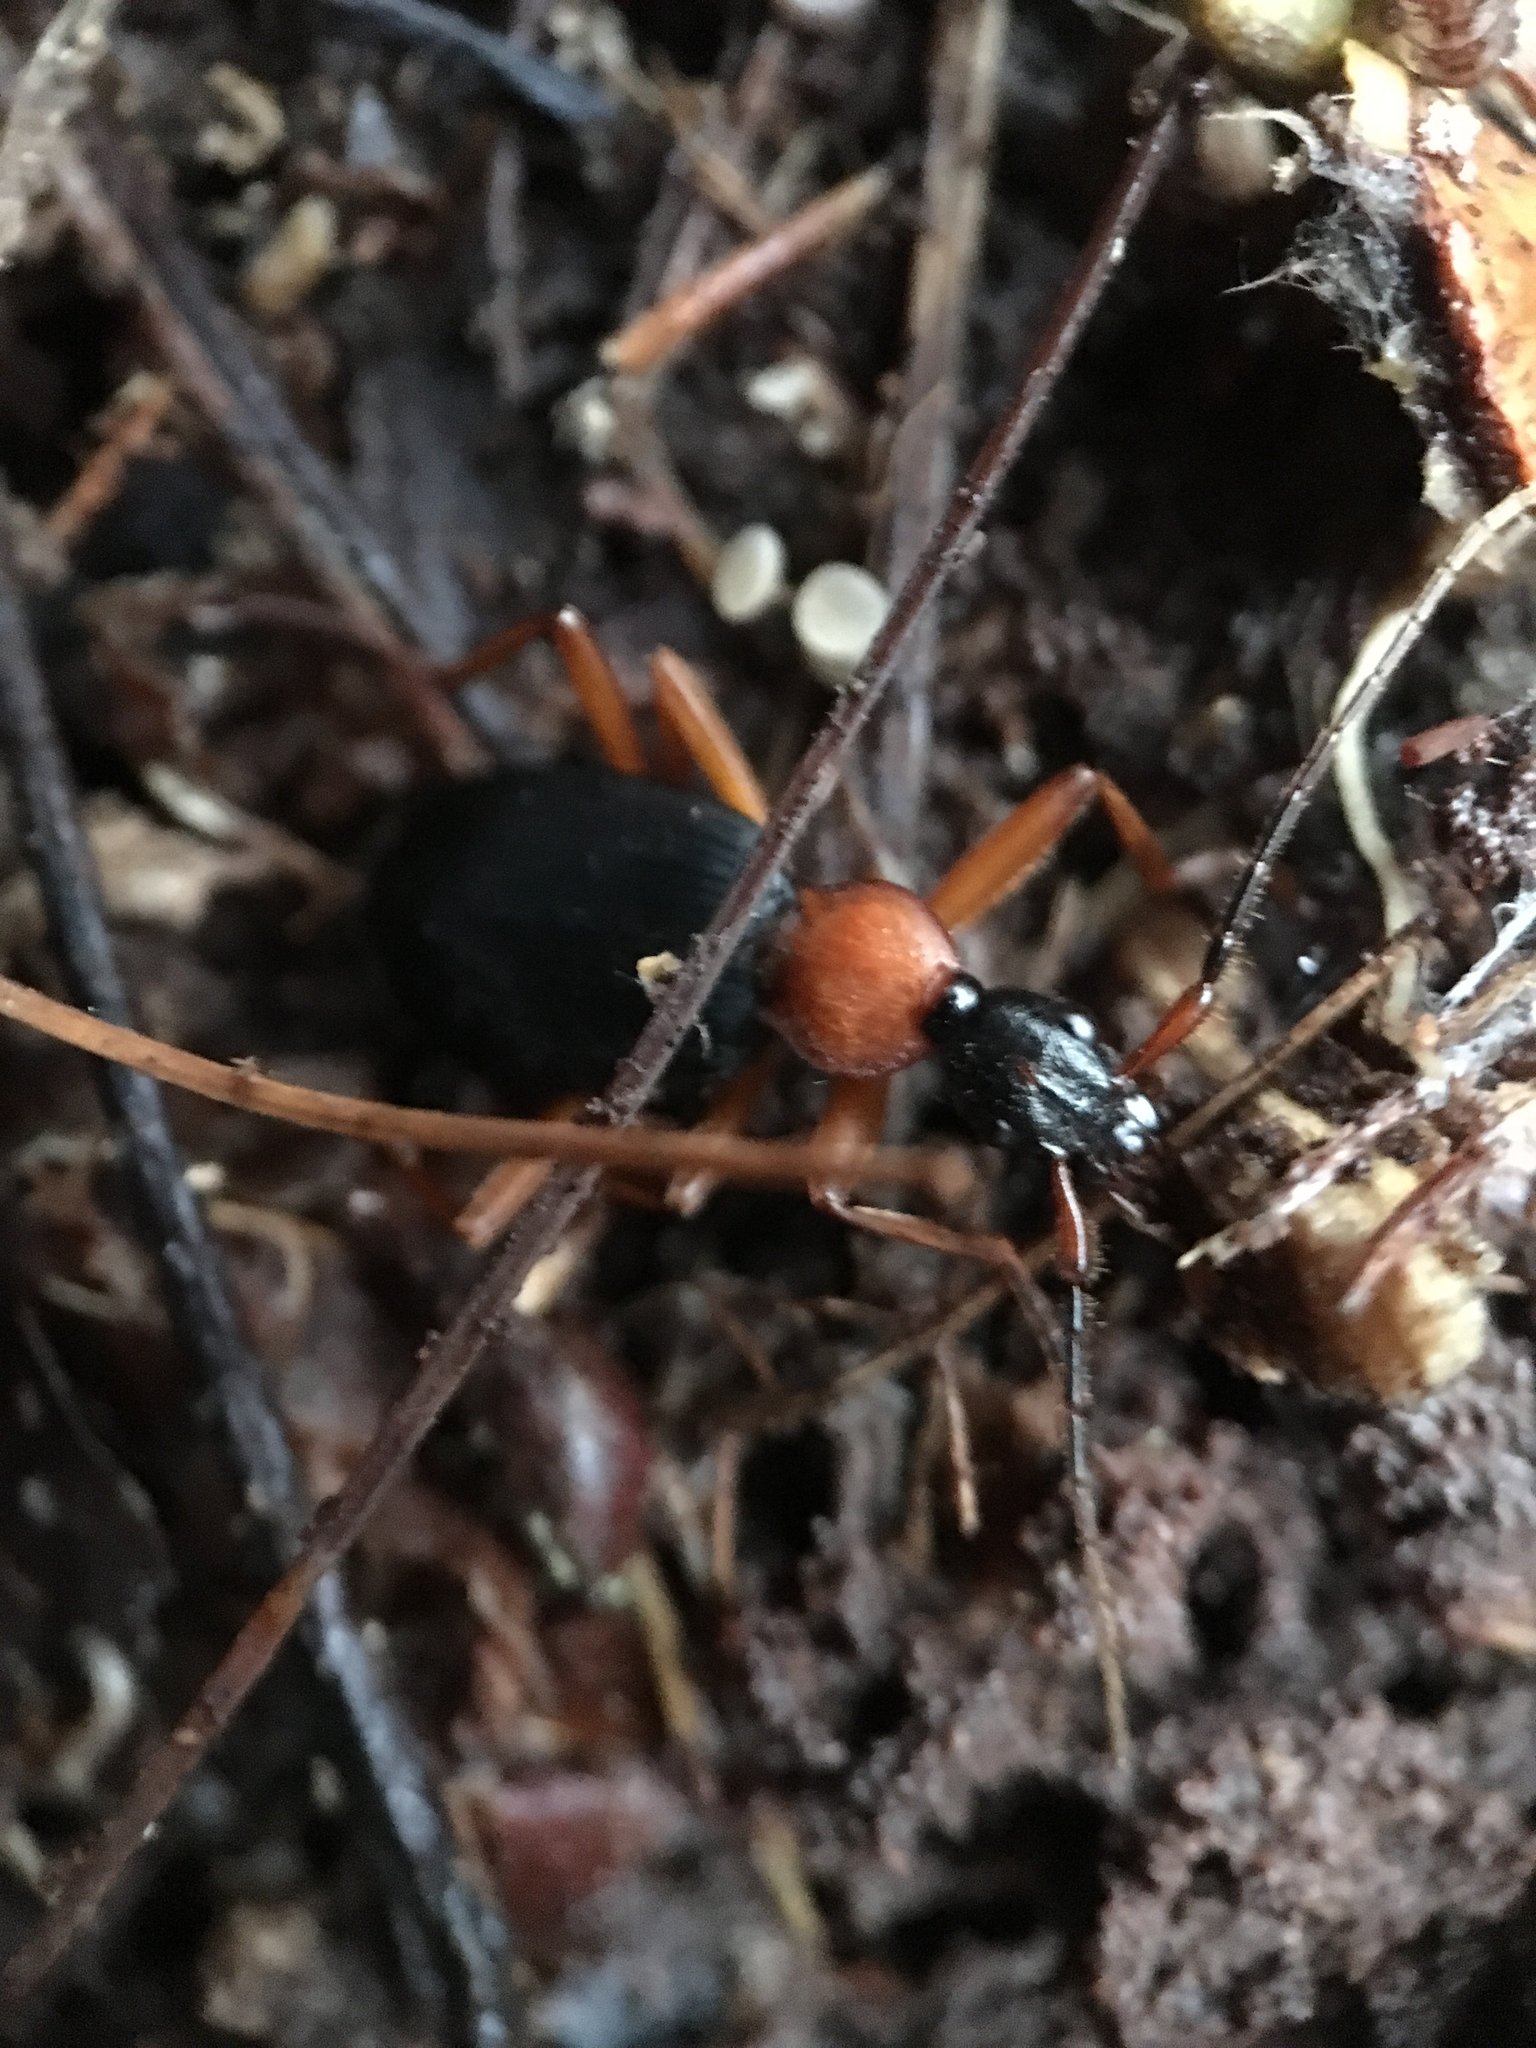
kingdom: Animalia
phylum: Arthropoda
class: Insecta
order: Coleoptera
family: Carabidae
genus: Galerita
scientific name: Galerita bicolor
